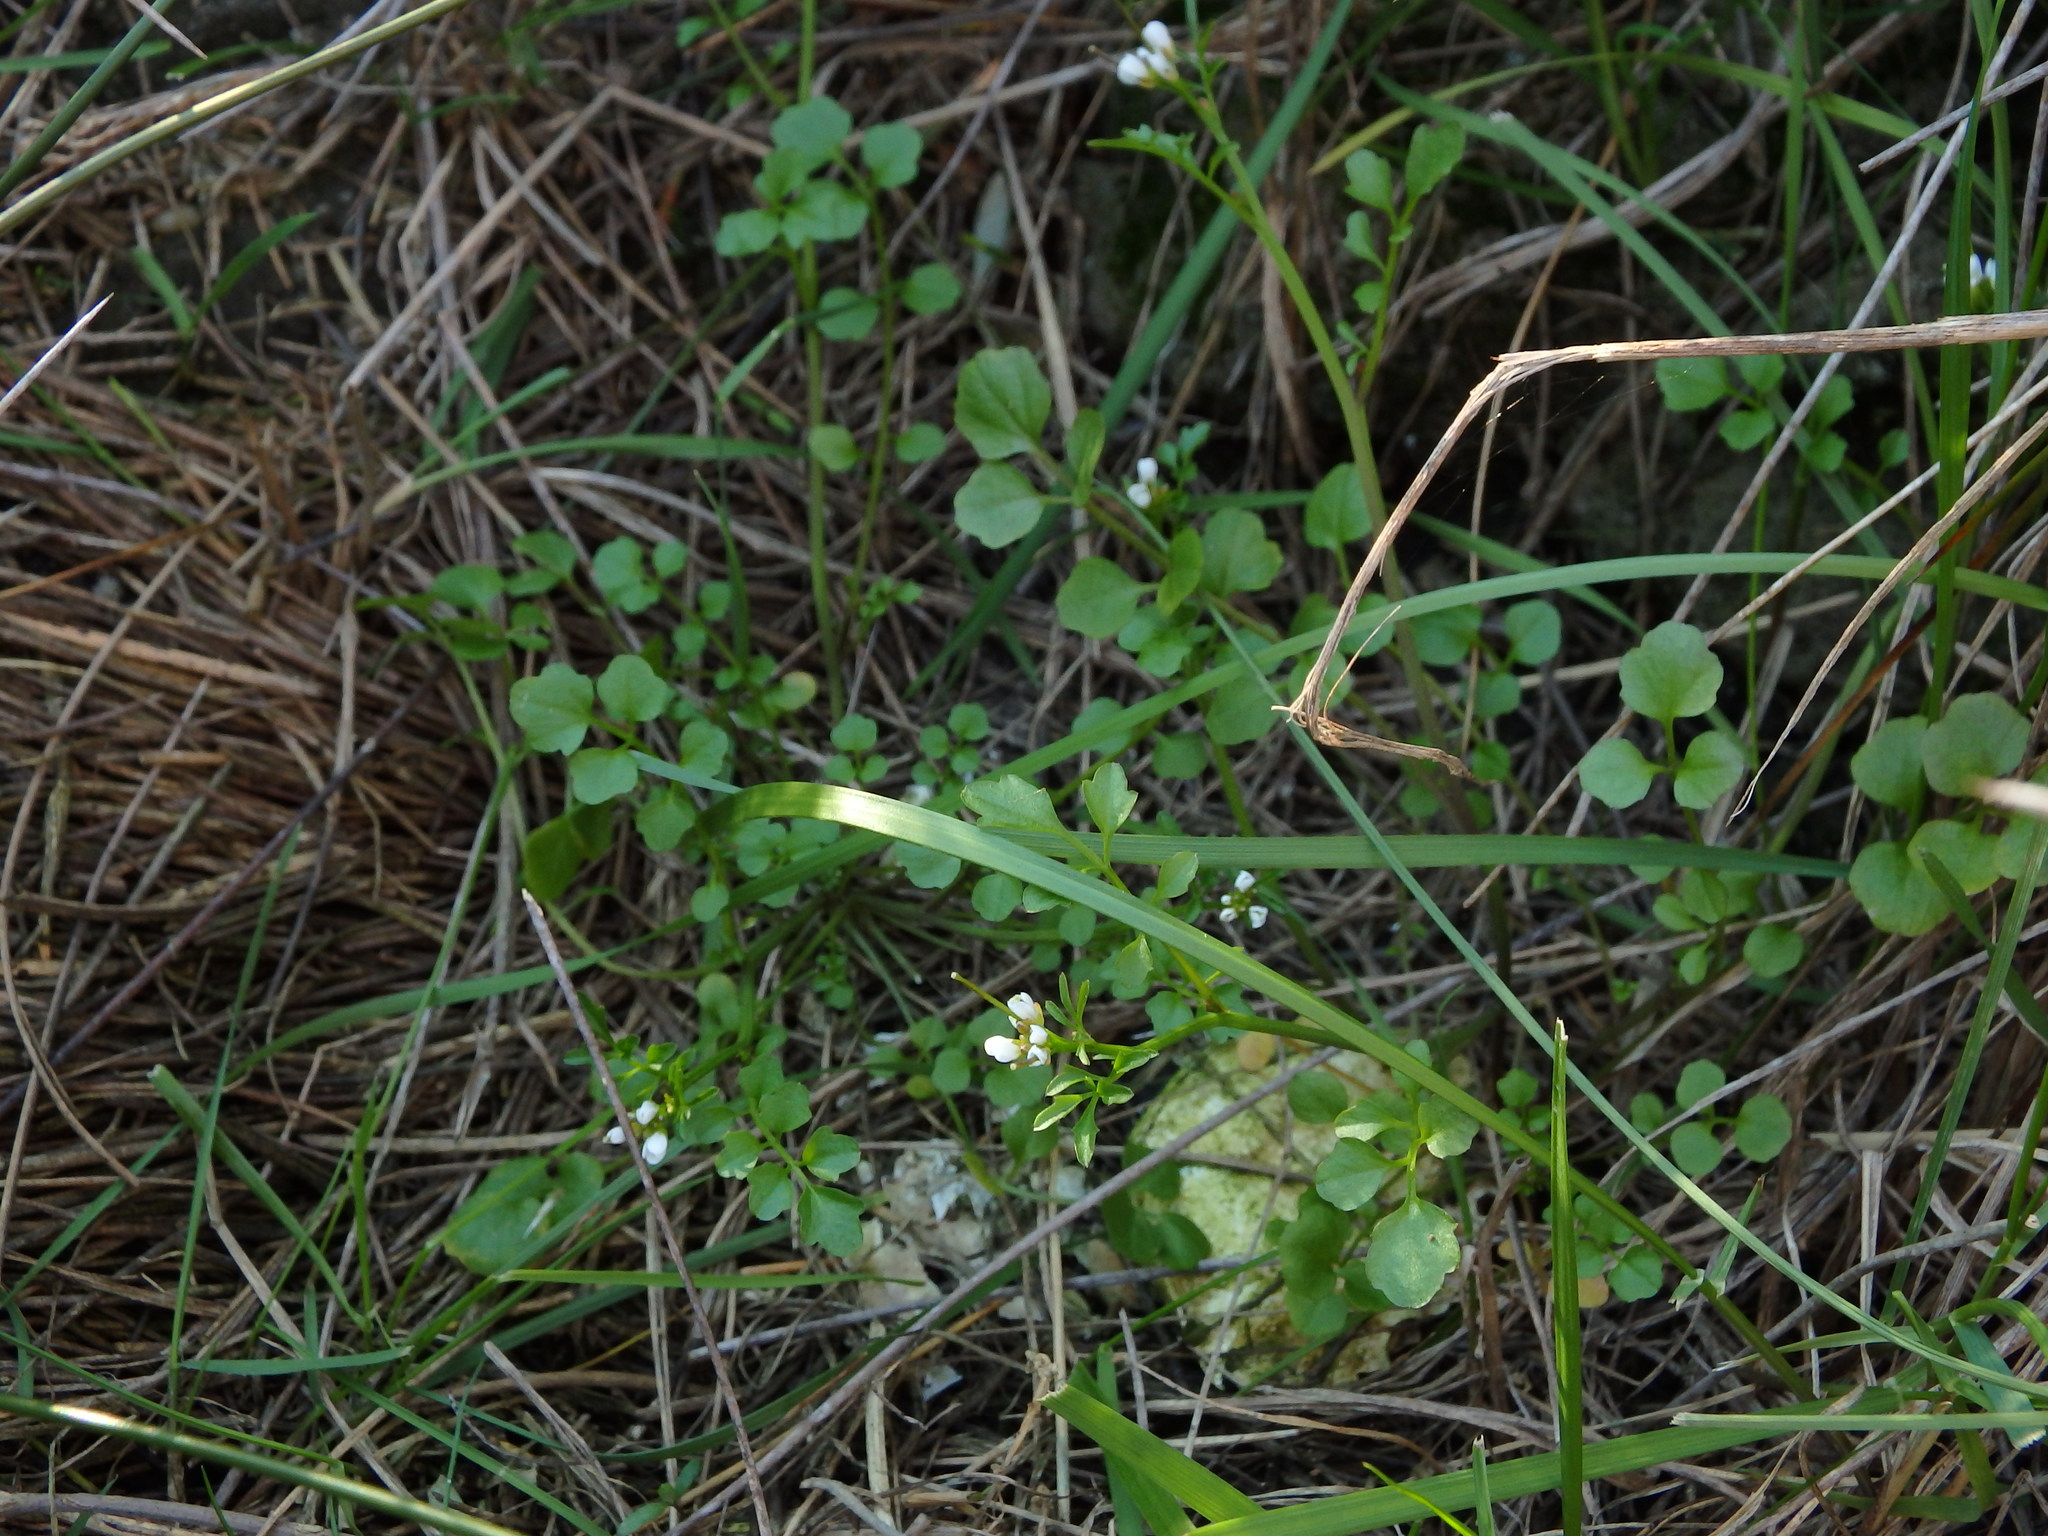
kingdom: Plantae
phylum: Tracheophyta
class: Magnoliopsida
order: Brassicales
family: Brassicaceae
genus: Cardamine
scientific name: Cardamine hirsuta
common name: Hairy bittercress
